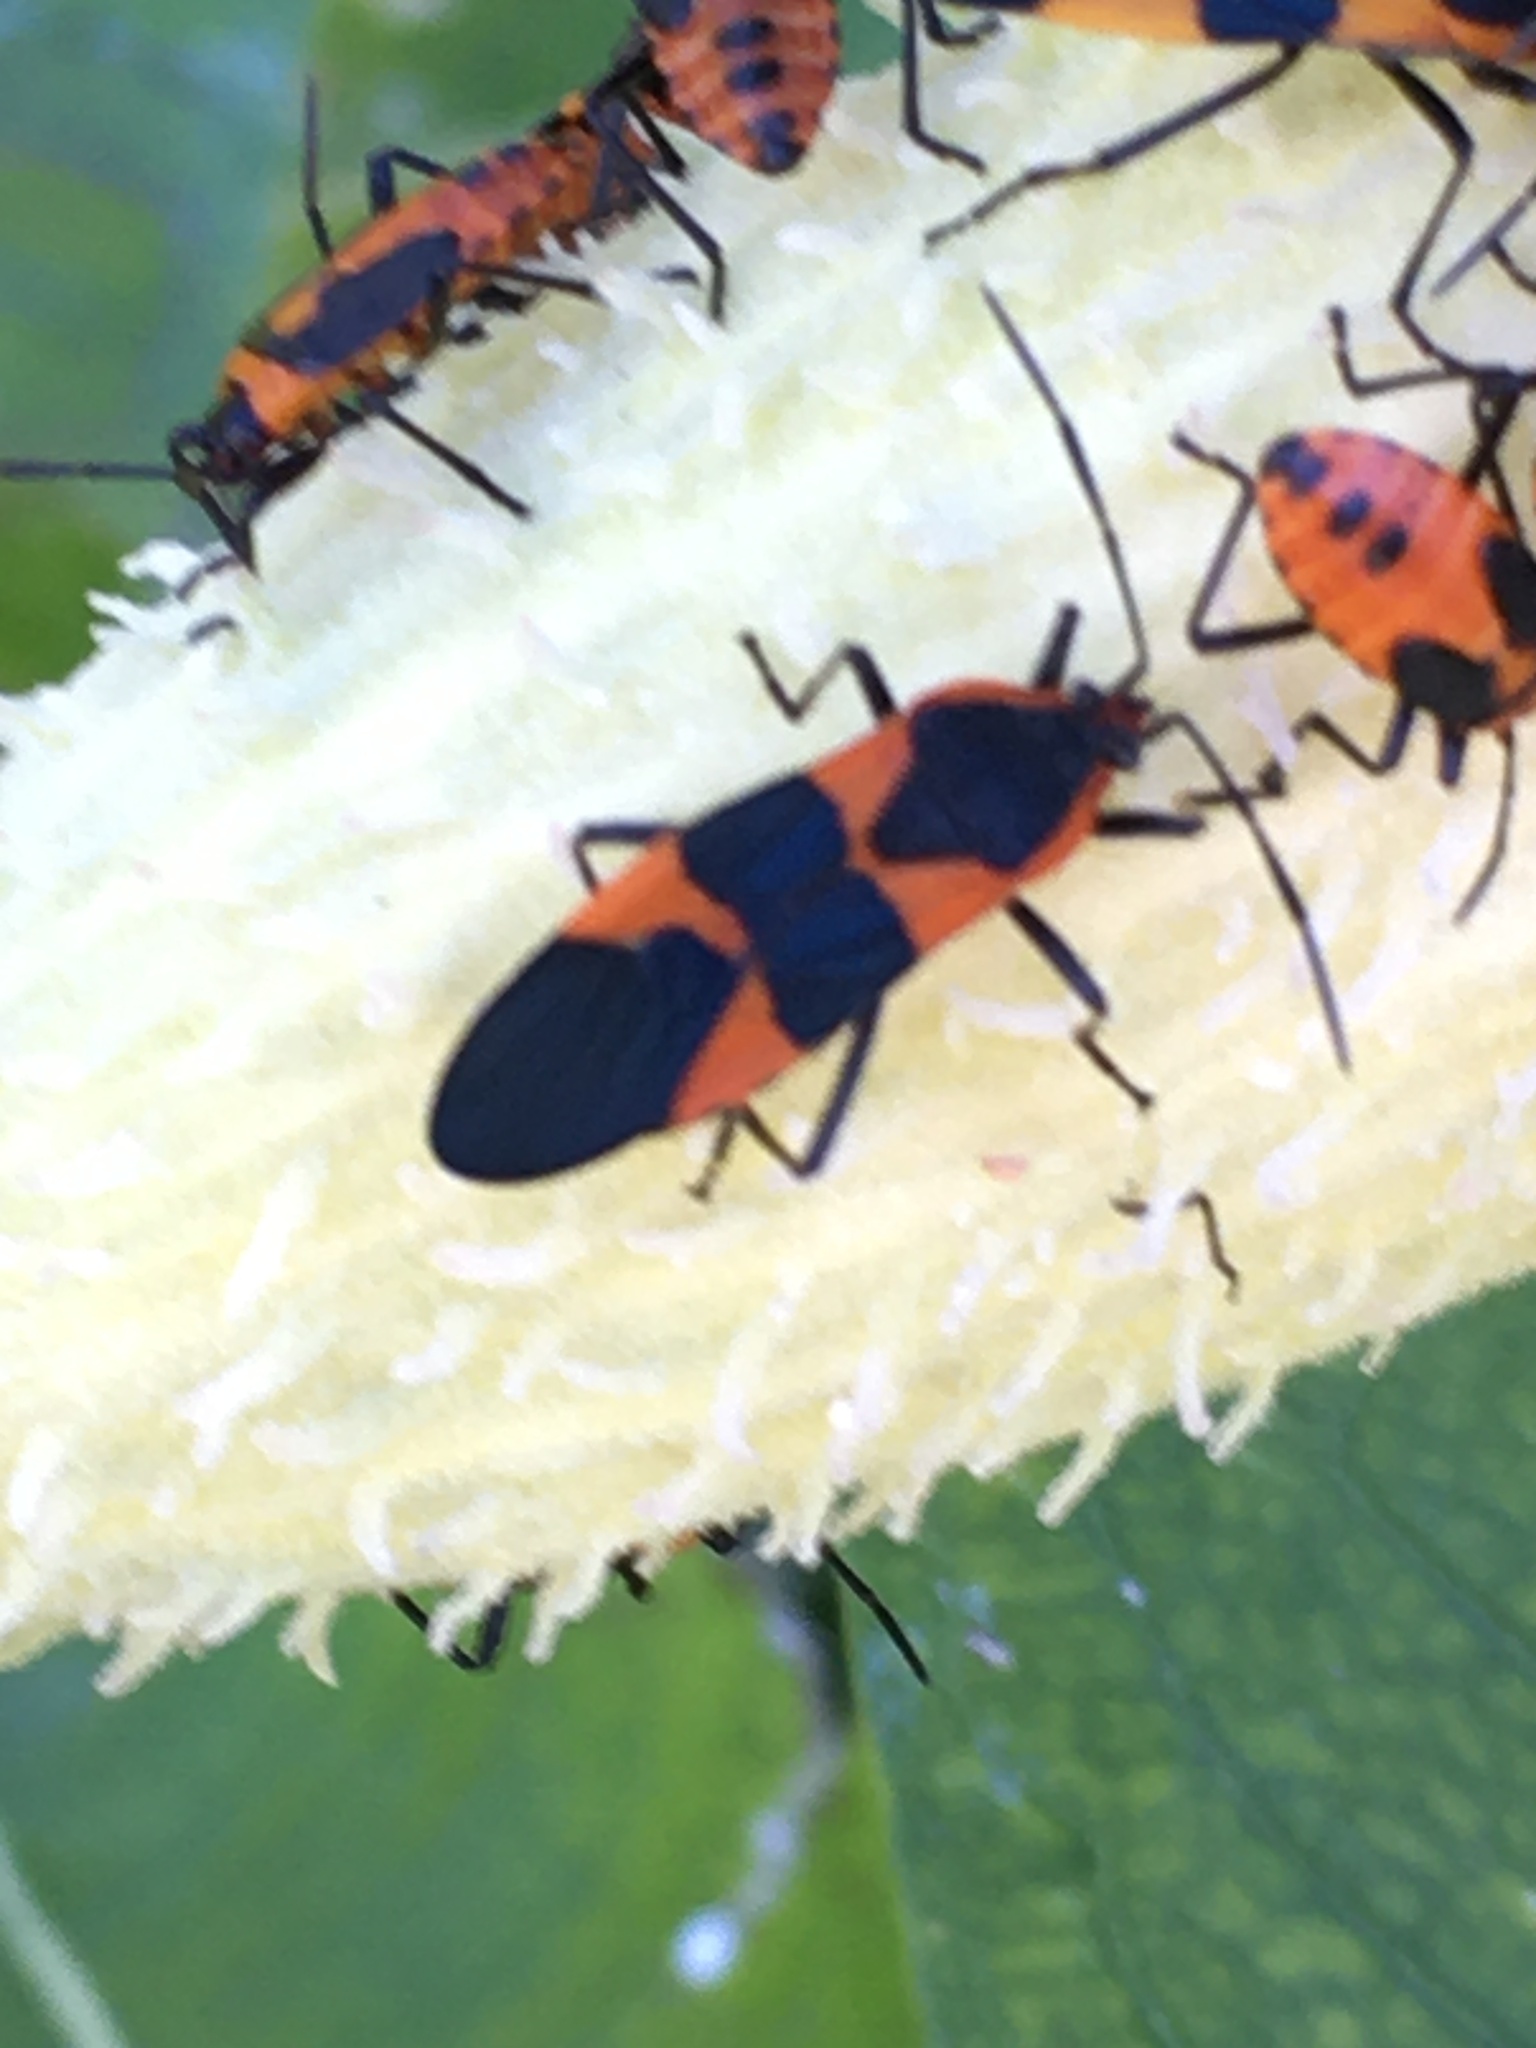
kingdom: Animalia
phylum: Arthropoda
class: Insecta
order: Hemiptera
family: Lygaeidae
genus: Oncopeltus
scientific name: Oncopeltus fasciatus
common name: Large milkweed bug
